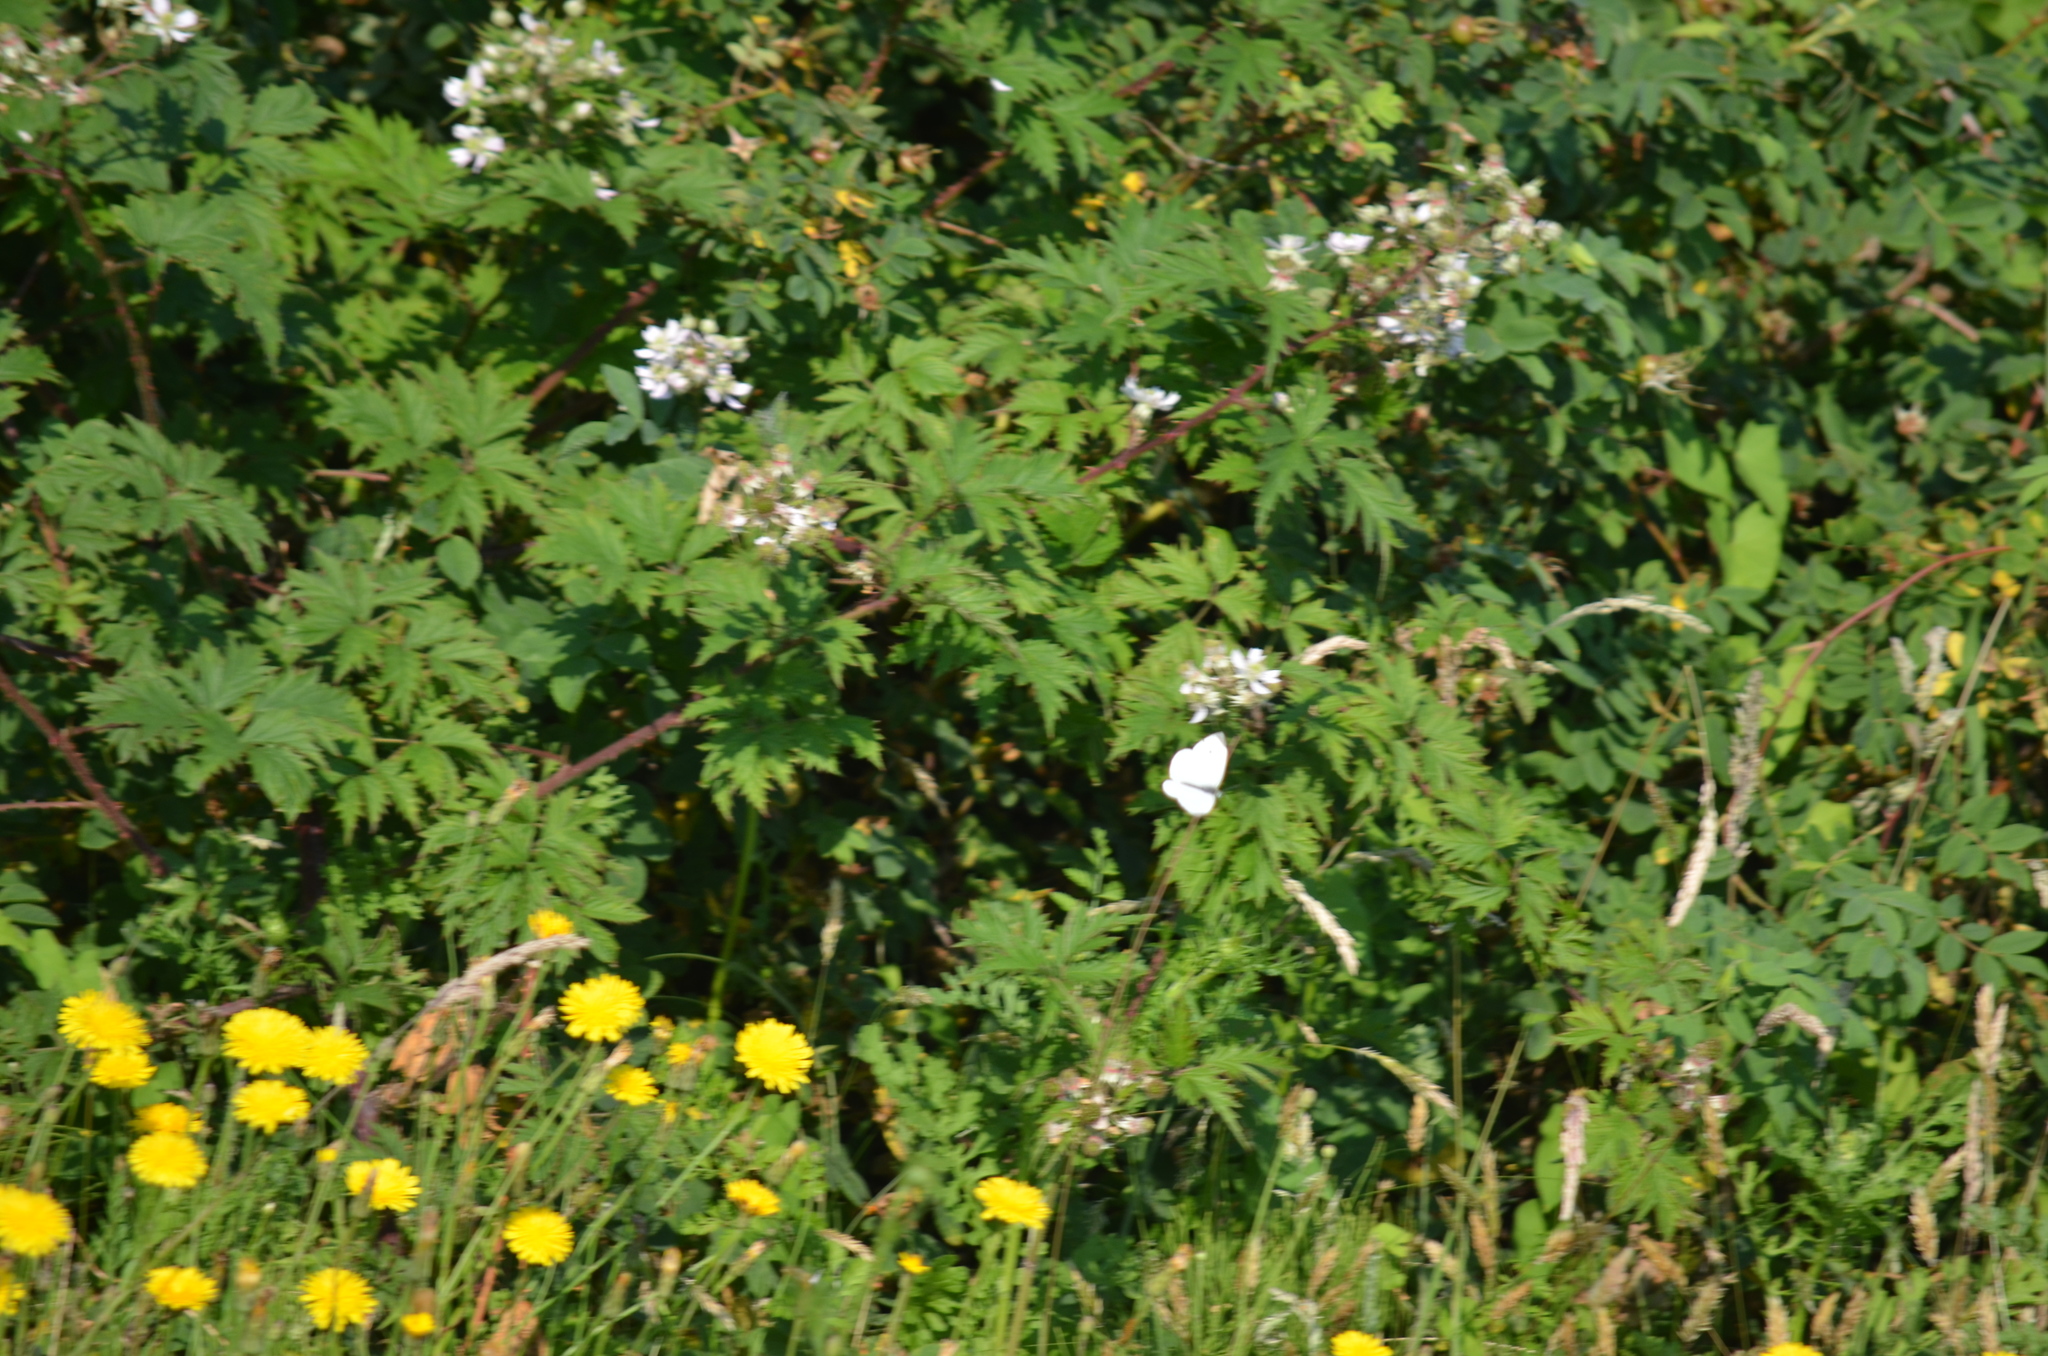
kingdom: Animalia
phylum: Arthropoda
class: Insecta
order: Lepidoptera
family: Pieridae
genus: Pieris
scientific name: Pieris rapae
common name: Small white
